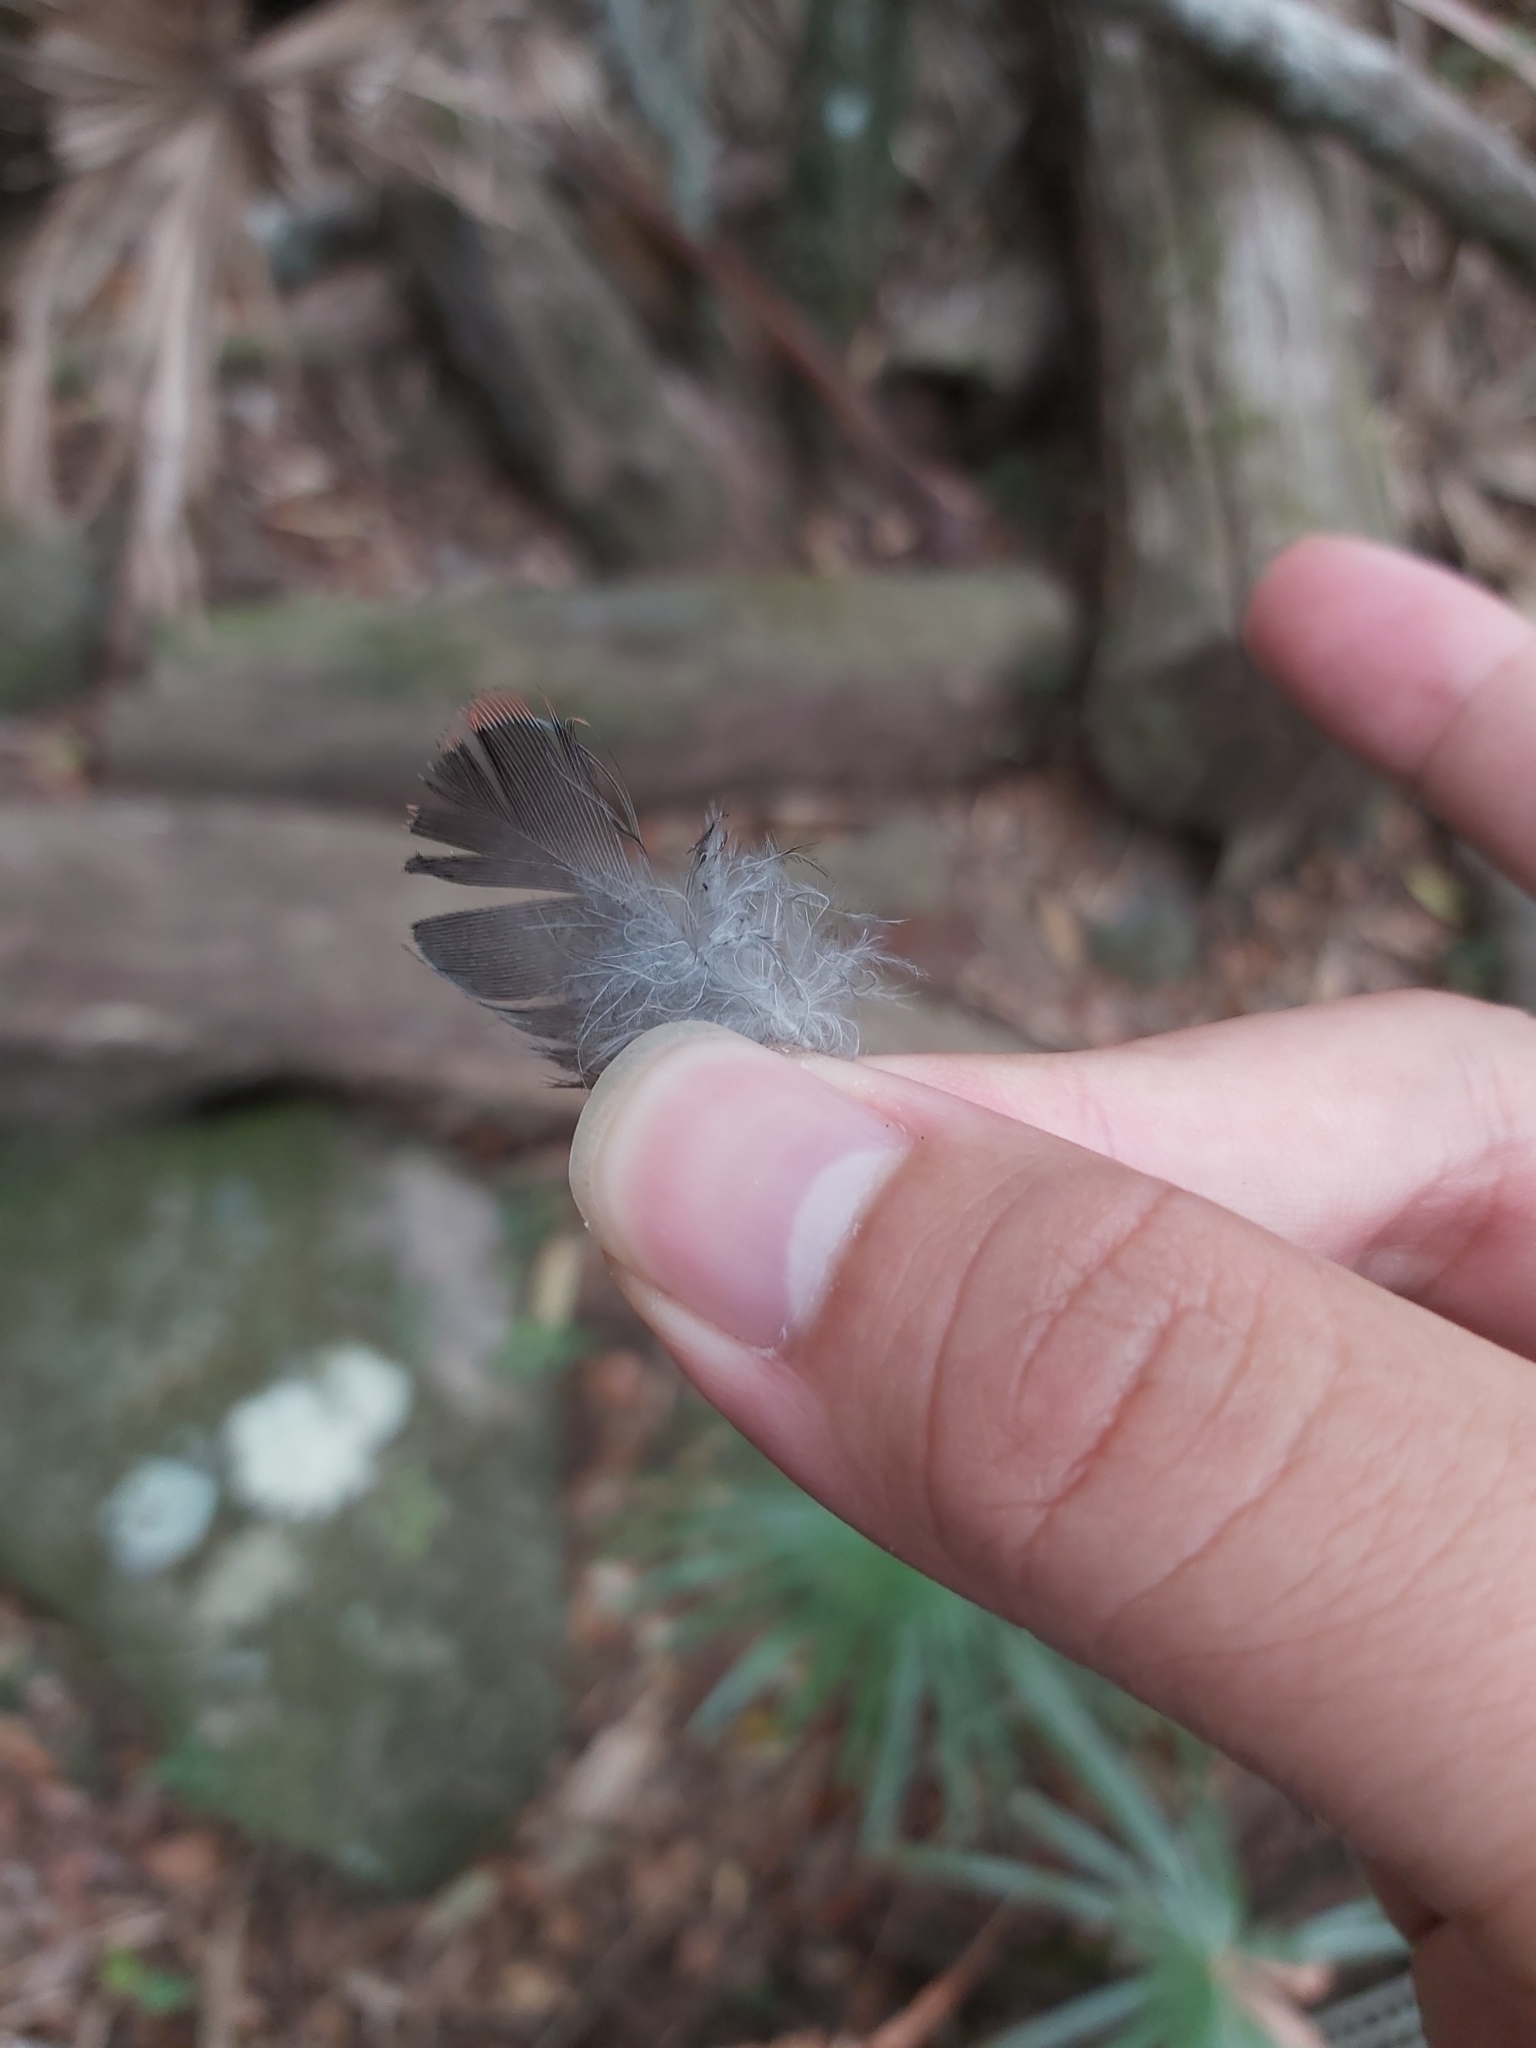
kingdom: Animalia
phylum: Chordata
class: Aves
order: Psittaciformes
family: Psittacidae
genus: Platycercus
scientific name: Platycercus elegans
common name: Crimson rosella
